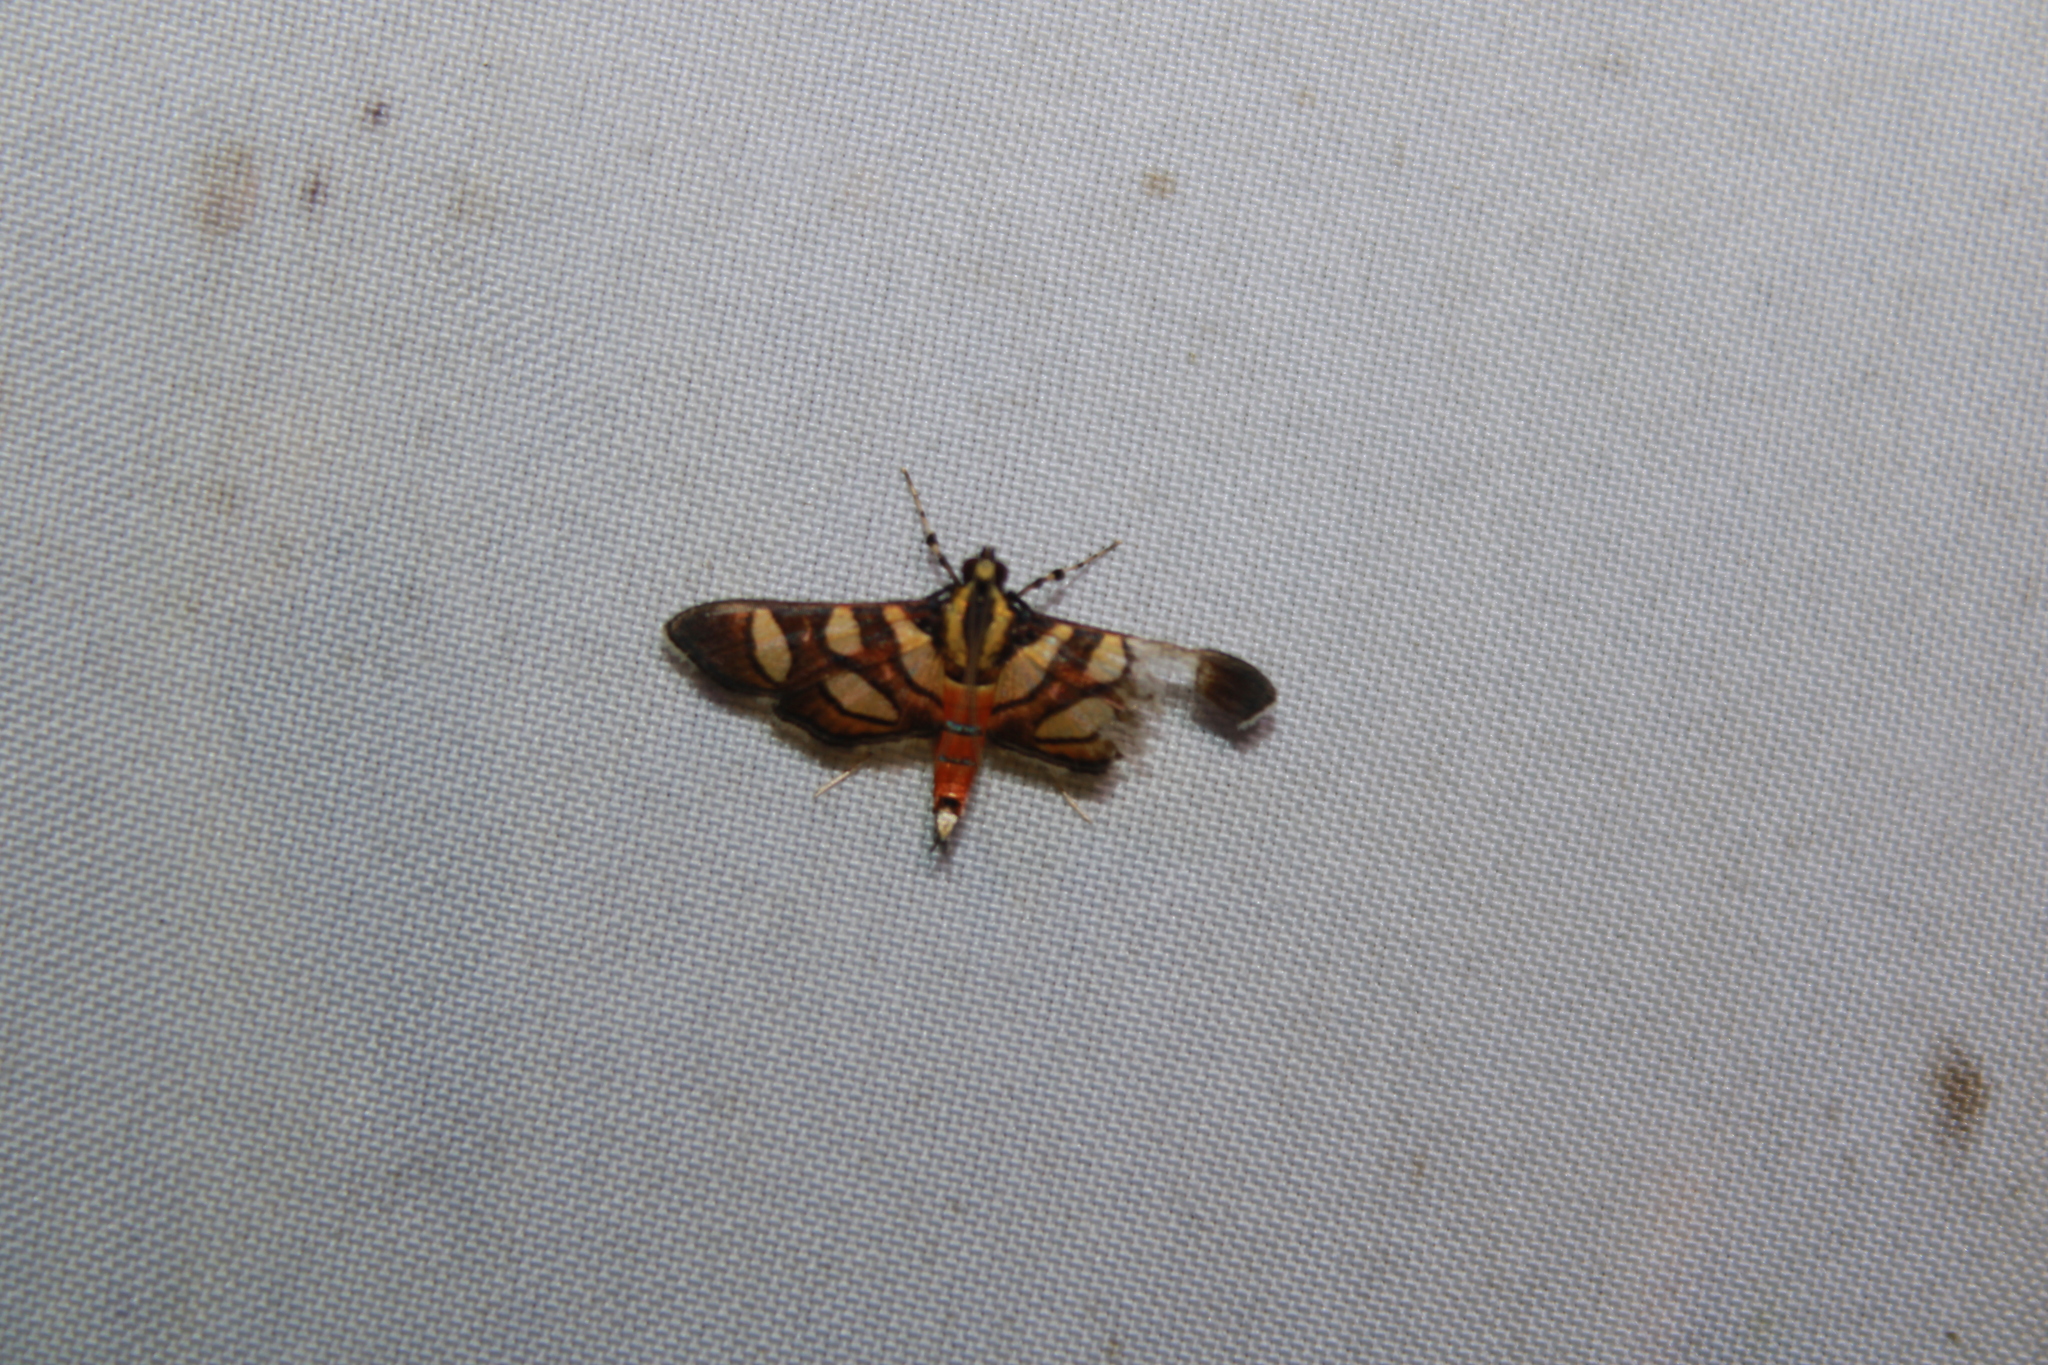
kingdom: Animalia
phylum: Arthropoda
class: Insecta
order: Lepidoptera
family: Crambidae
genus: Syngamia
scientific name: Syngamia florella
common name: Orange-spotted flower moth
